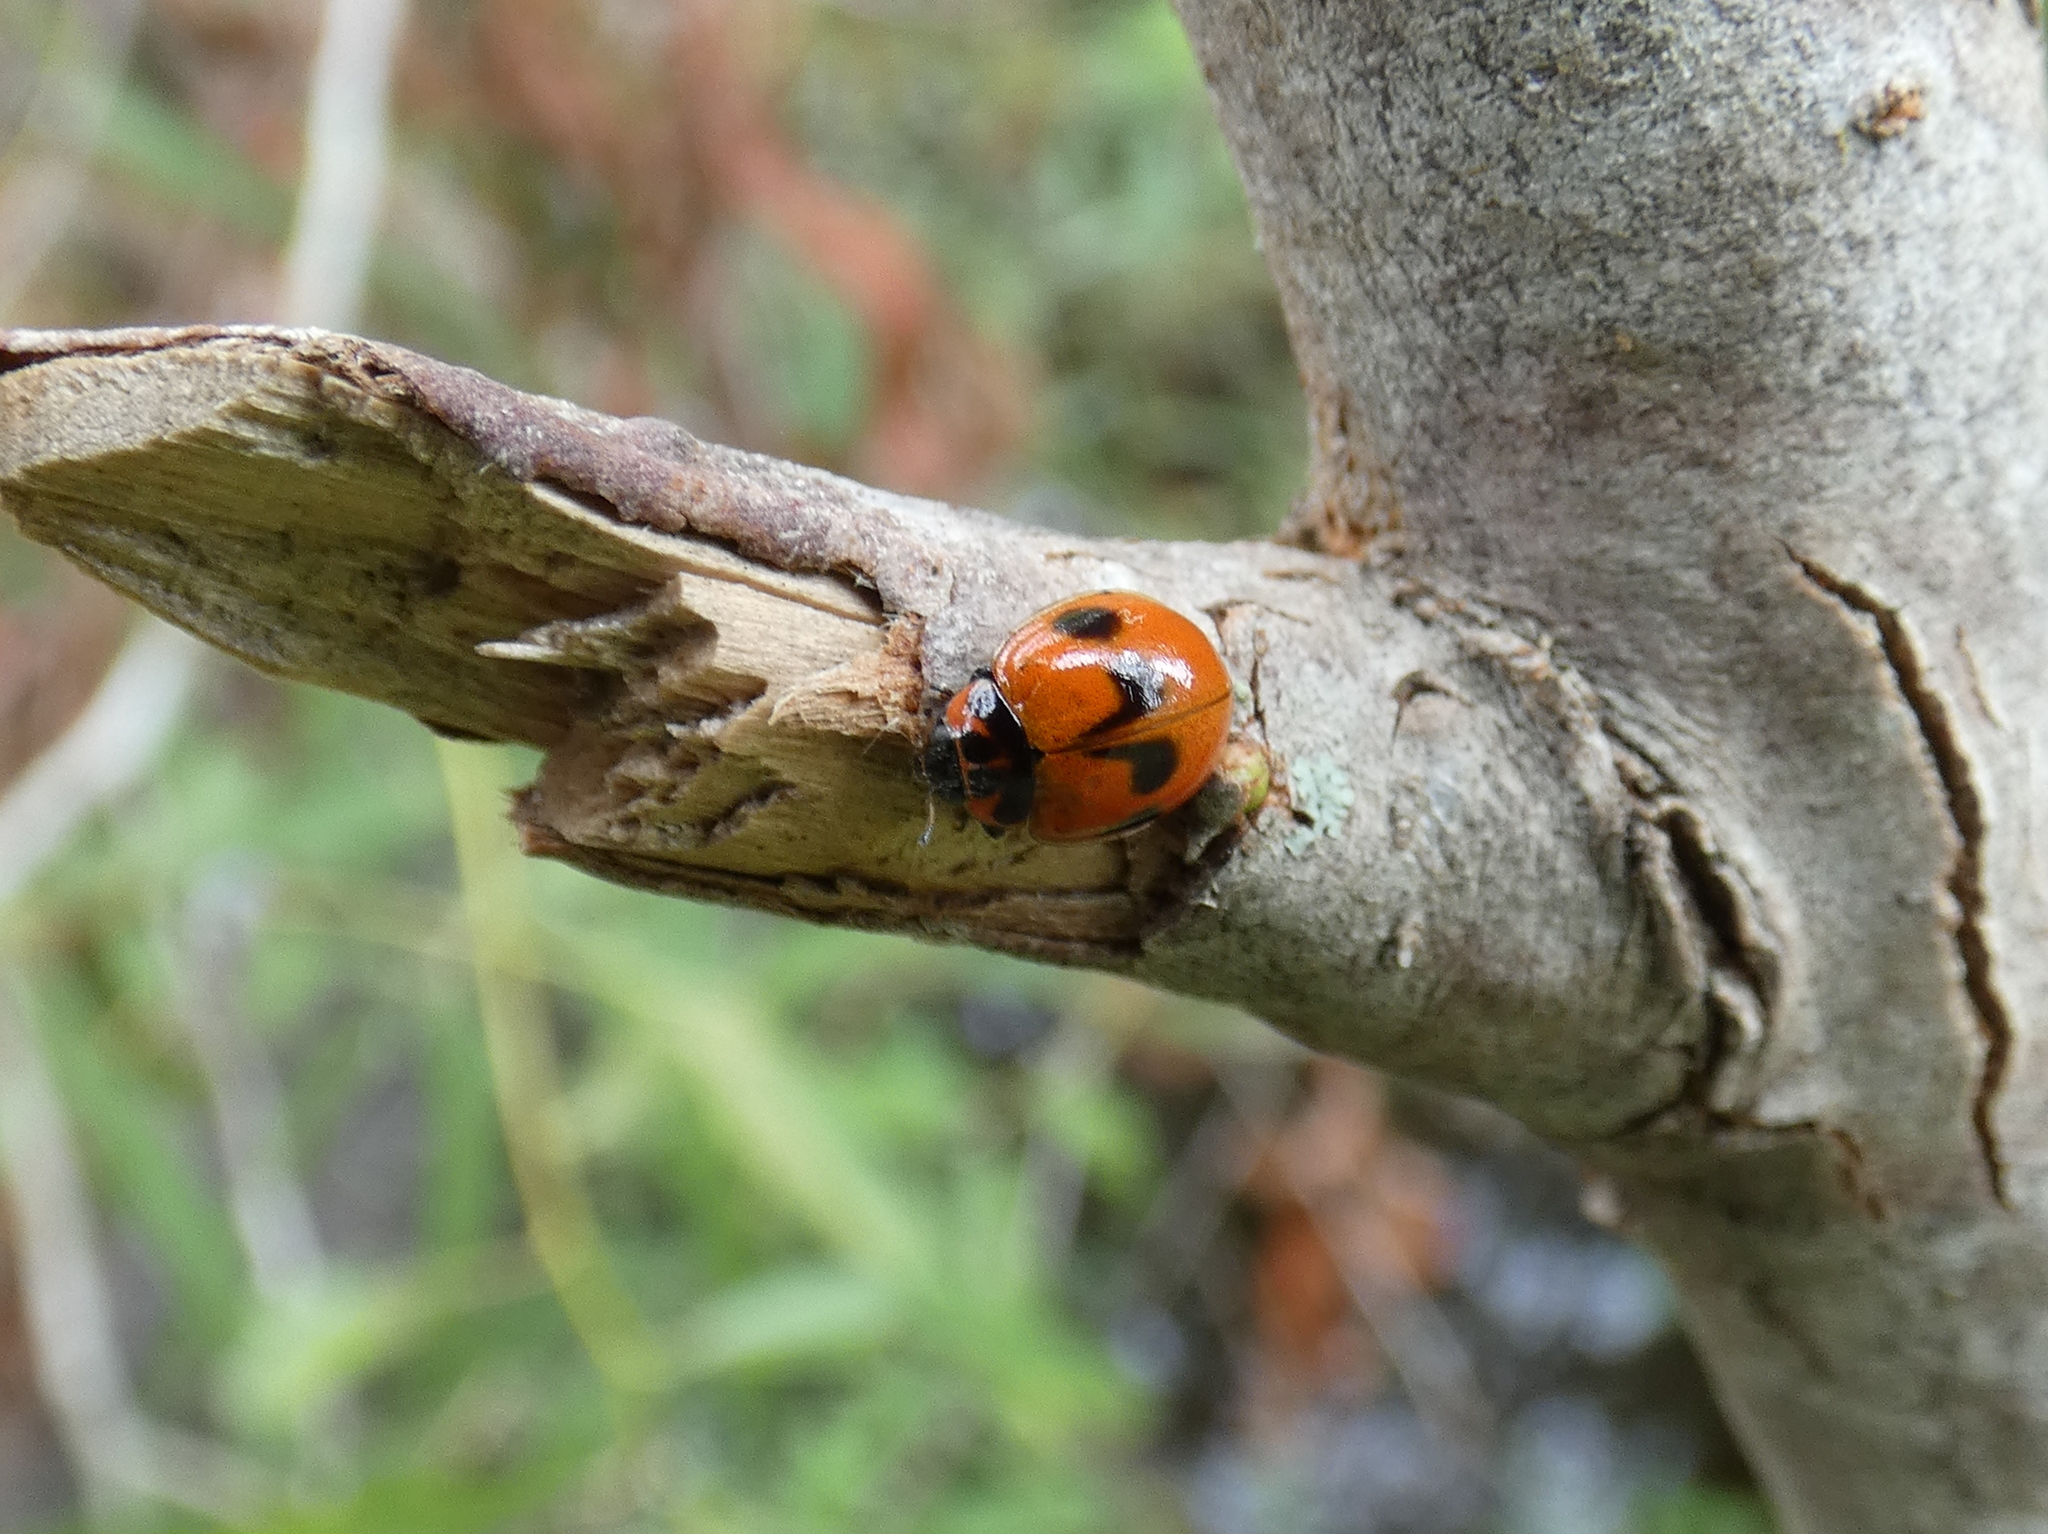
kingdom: Animalia
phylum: Arthropoda
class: Insecta
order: Coleoptera
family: Coccinellidae
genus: Neoharmonia
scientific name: Neoharmonia venusta
